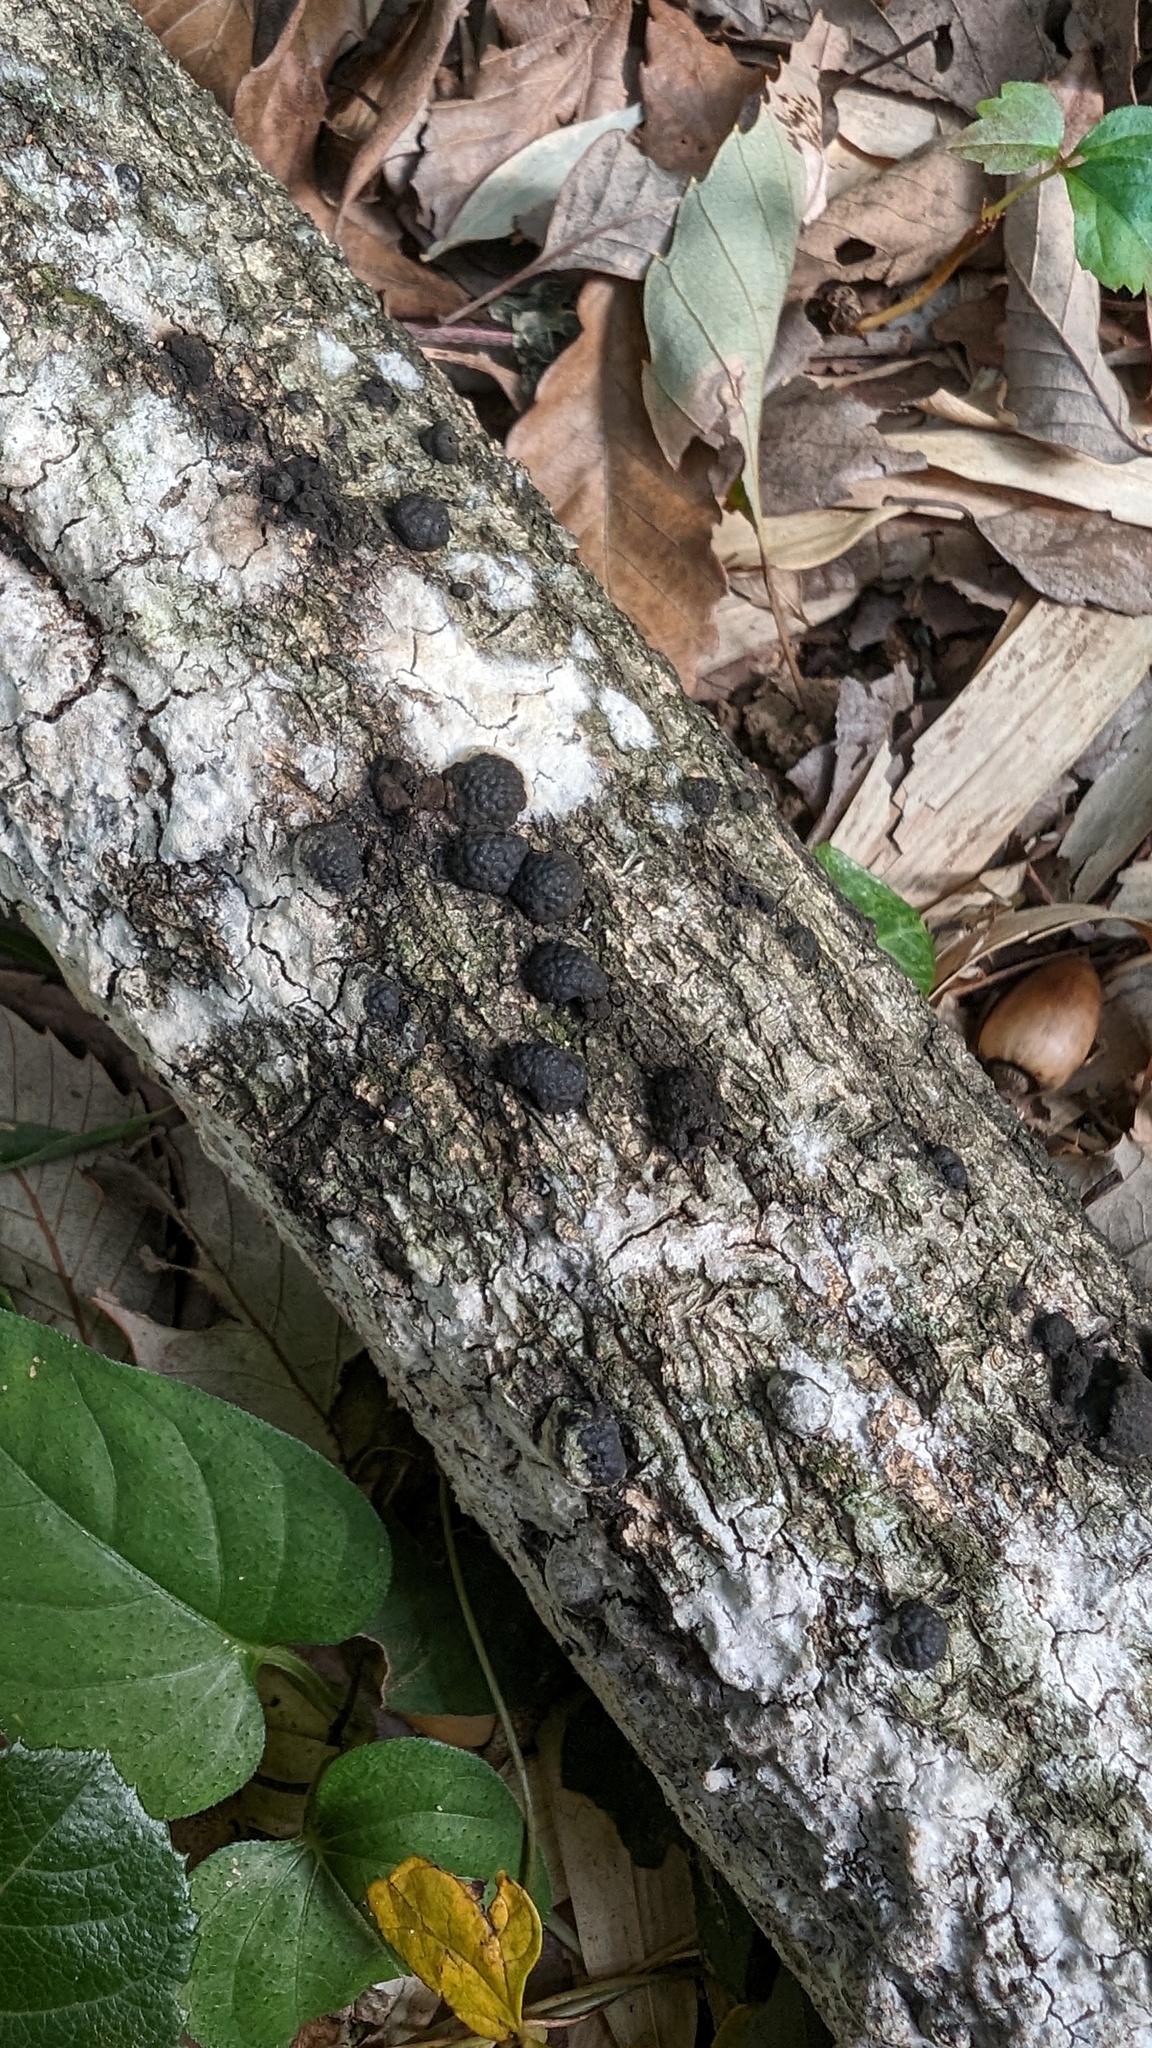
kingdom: Fungi
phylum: Ascomycota
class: Sordariomycetes
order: Xylariales
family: Hypoxylaceae
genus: Annulohypoxylon
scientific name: Annulohypoxylon truncatum
